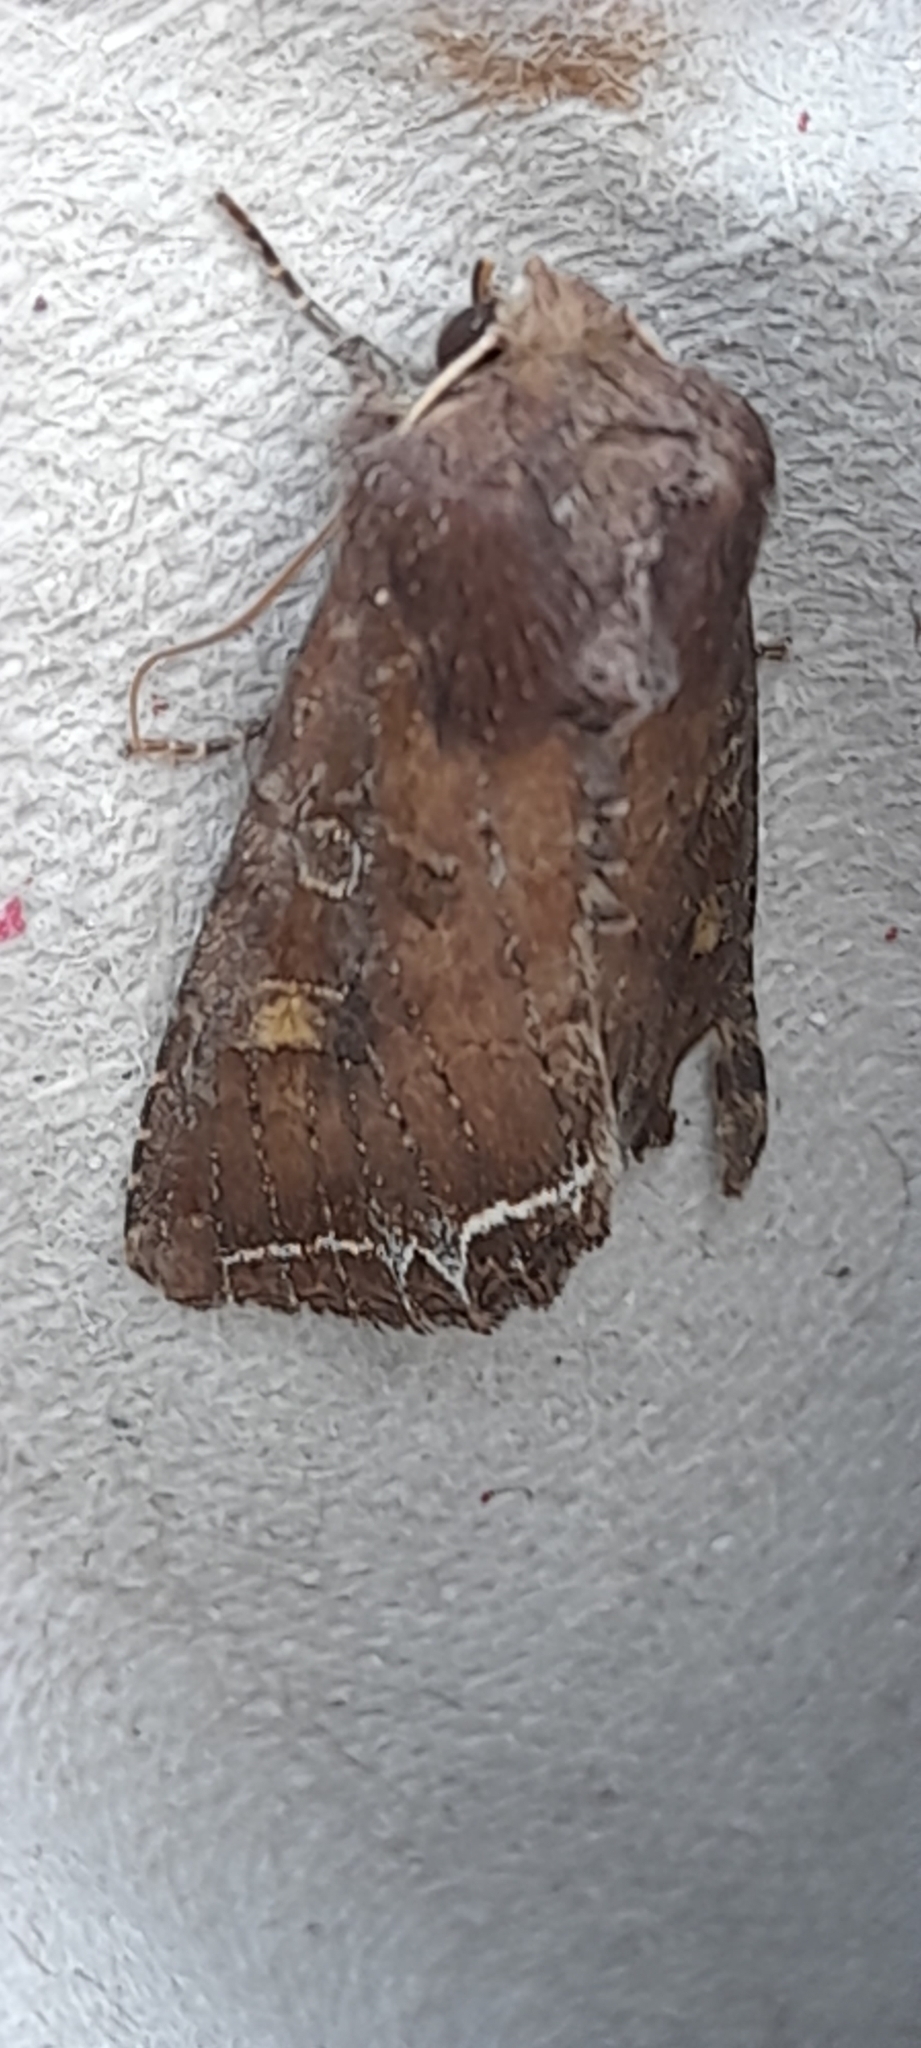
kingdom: Animalia
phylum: Arthropoda
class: Insecta
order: Lepidoptera
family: Noctuidae
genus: Lacanobia
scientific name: Lacanobia oleracea
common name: Bright-line brown-eye
